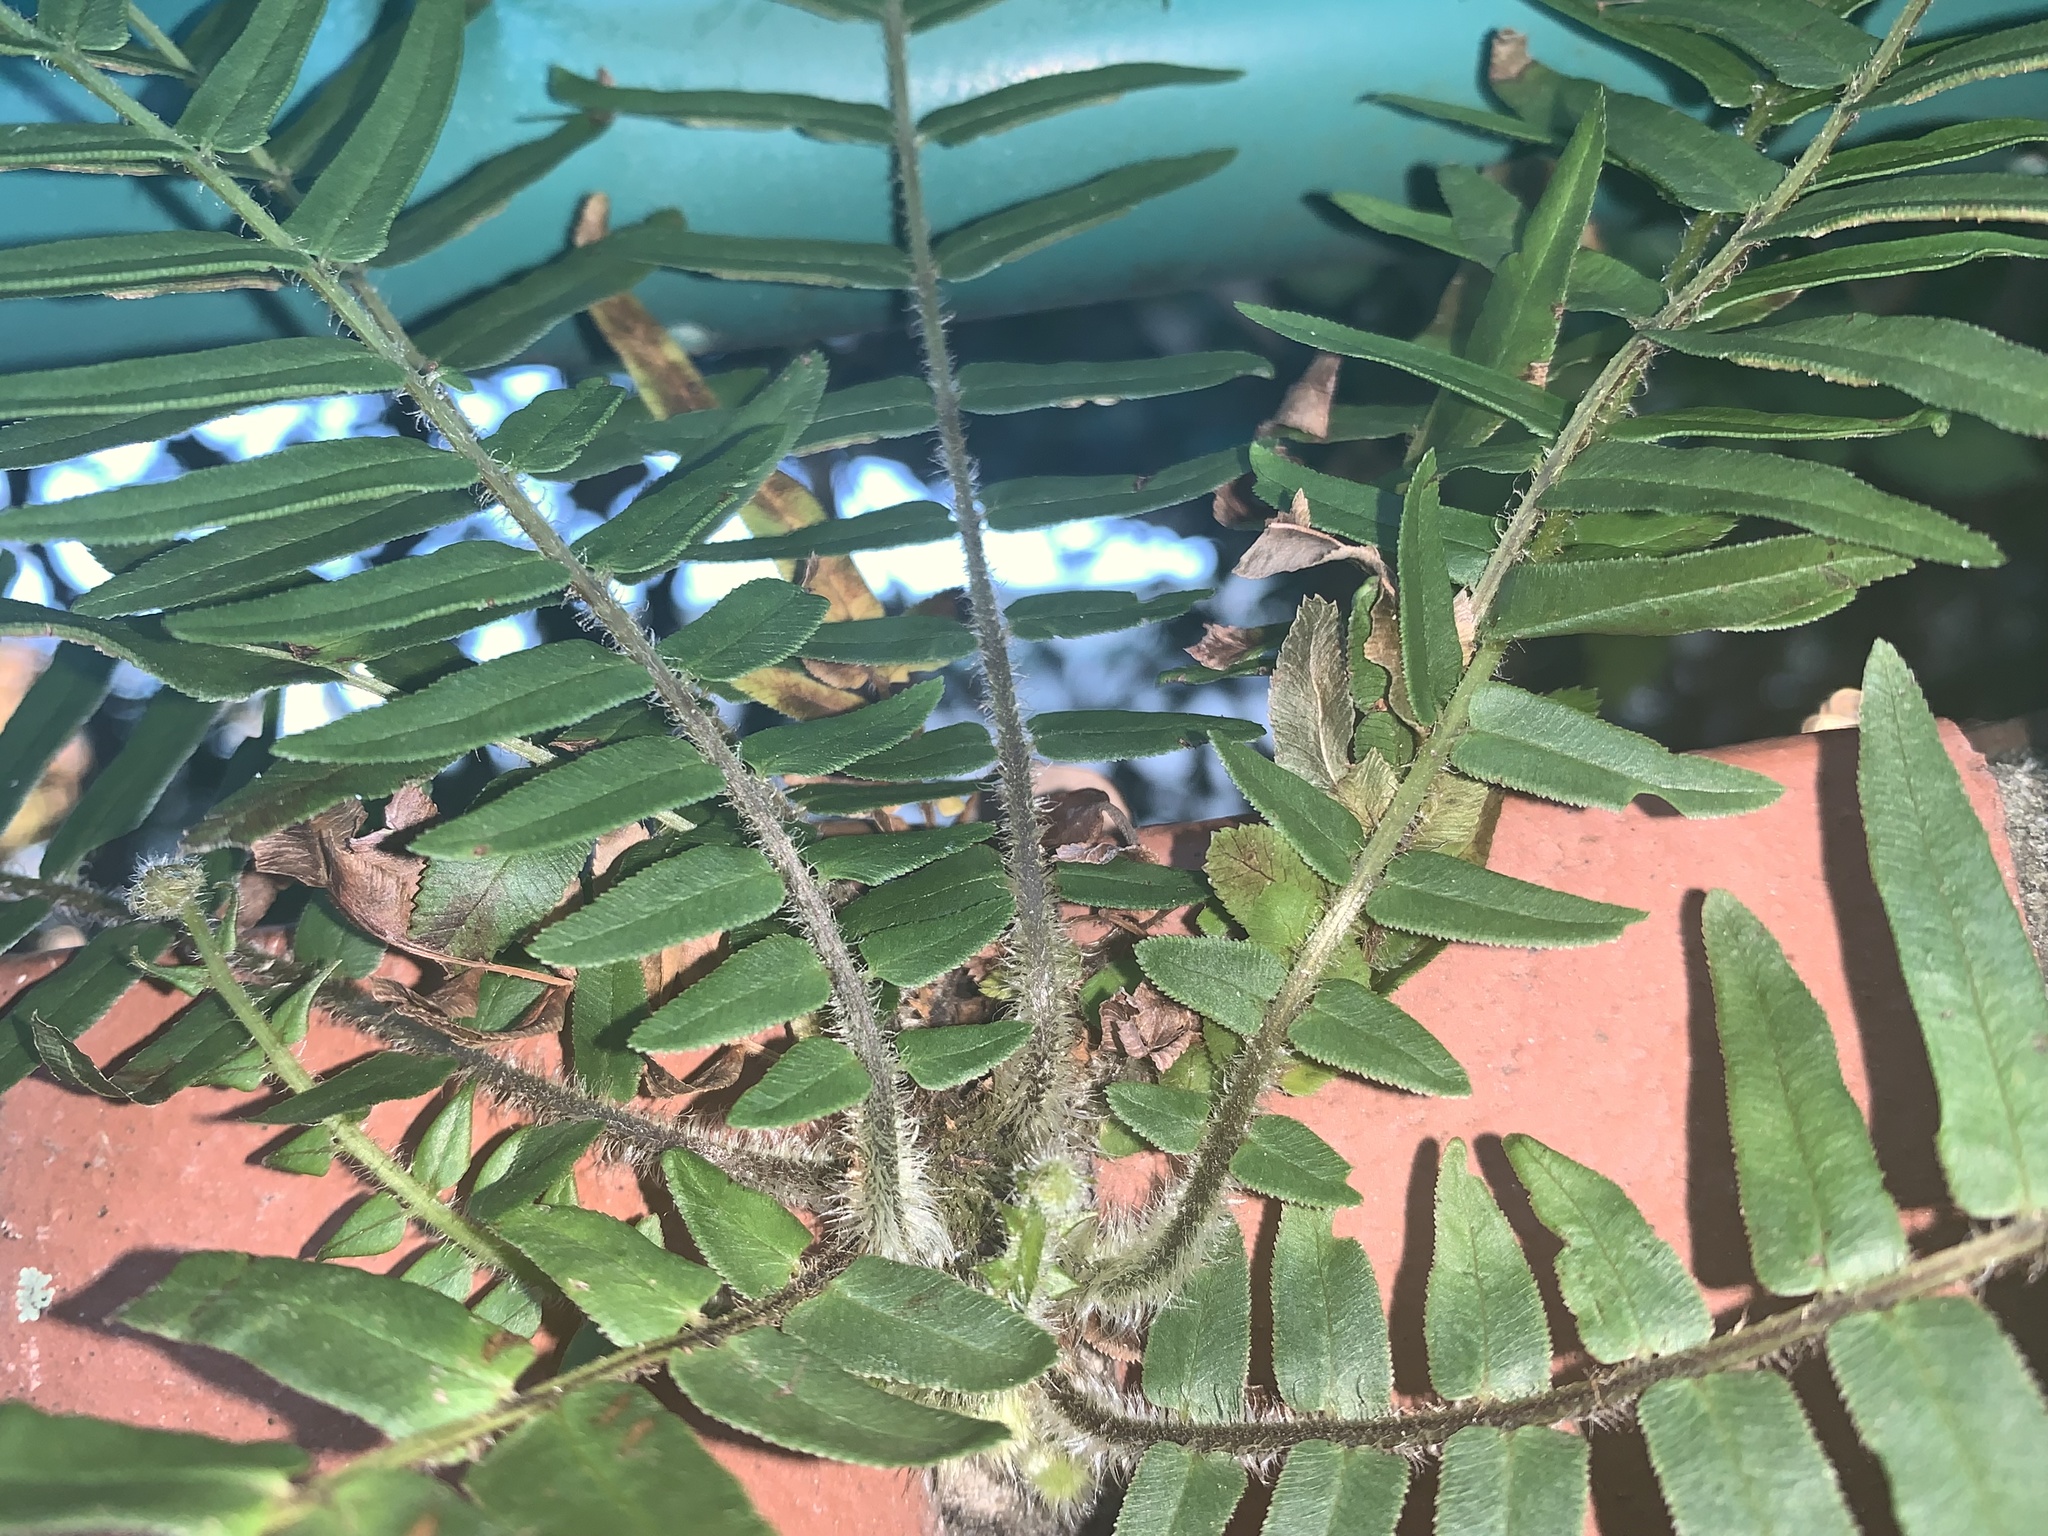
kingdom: Plantae
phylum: Tracheophyta
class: Polypodiopsida
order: Polypodiales
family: Pteridaceae
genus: Pteris
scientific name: Pteris vittata
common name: Ladder brake
